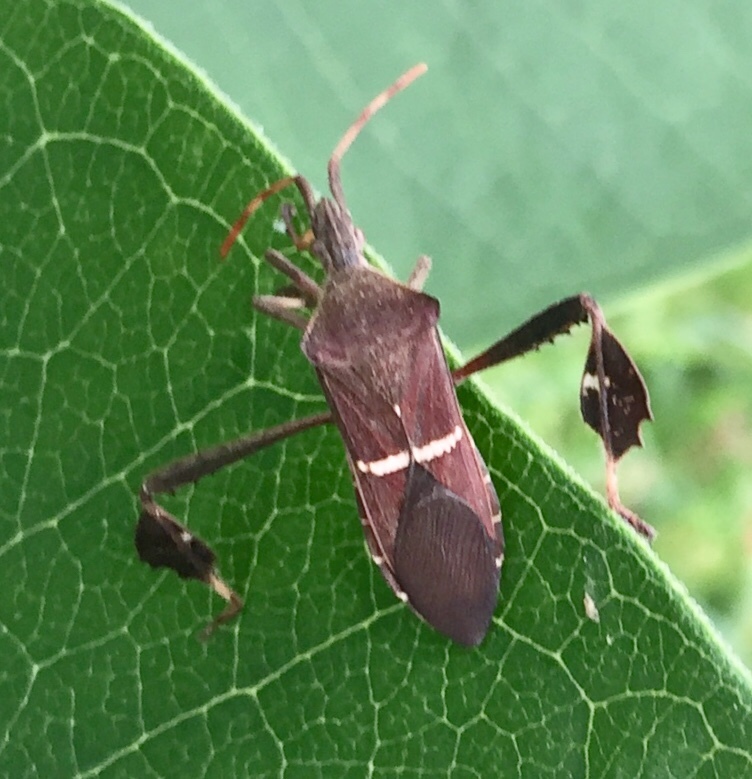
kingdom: Animalia
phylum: Arthropoda
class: Insecta
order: Hemiptera
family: Coreidae
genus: Leptoglossus
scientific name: Leptoglossus phyllopus
